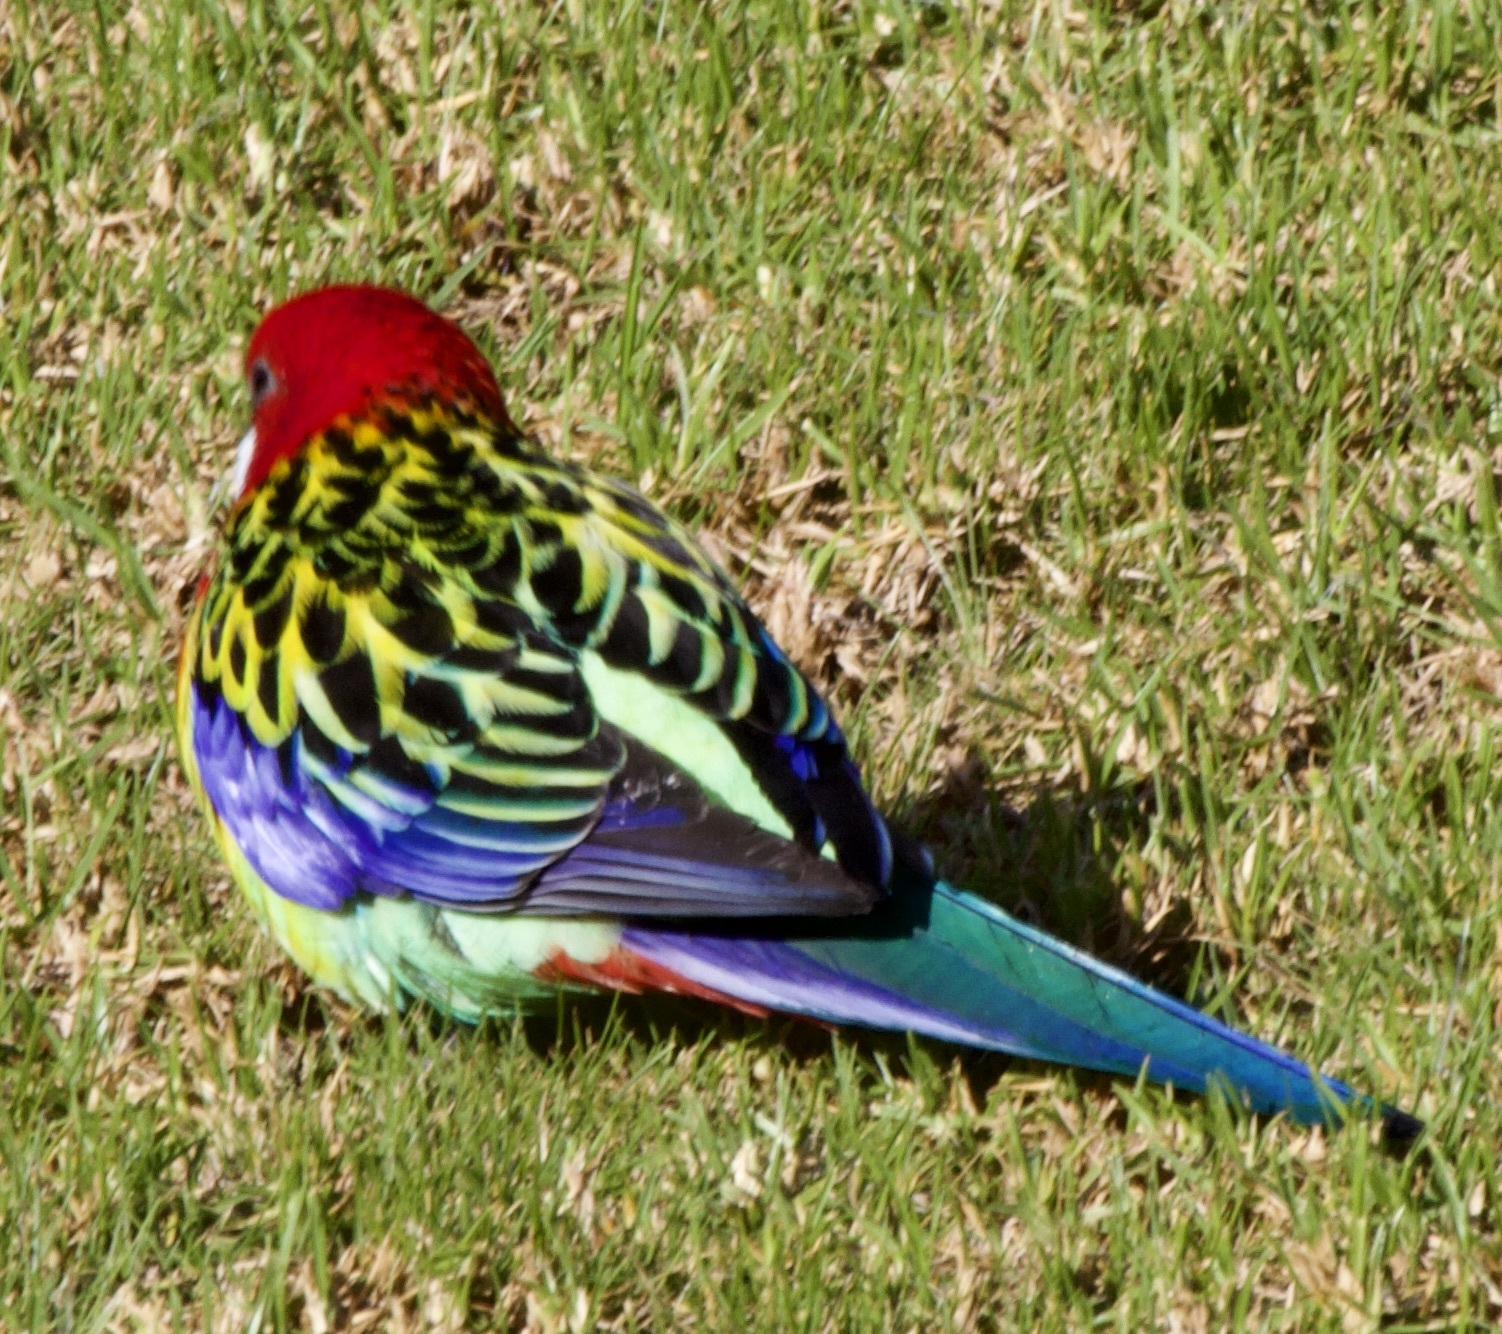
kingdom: Animalia
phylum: Chordata
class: Aves
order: Psittaciformes
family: Psittacidae
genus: Platycercus
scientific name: Platycercus eximius
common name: Eastern rosella
